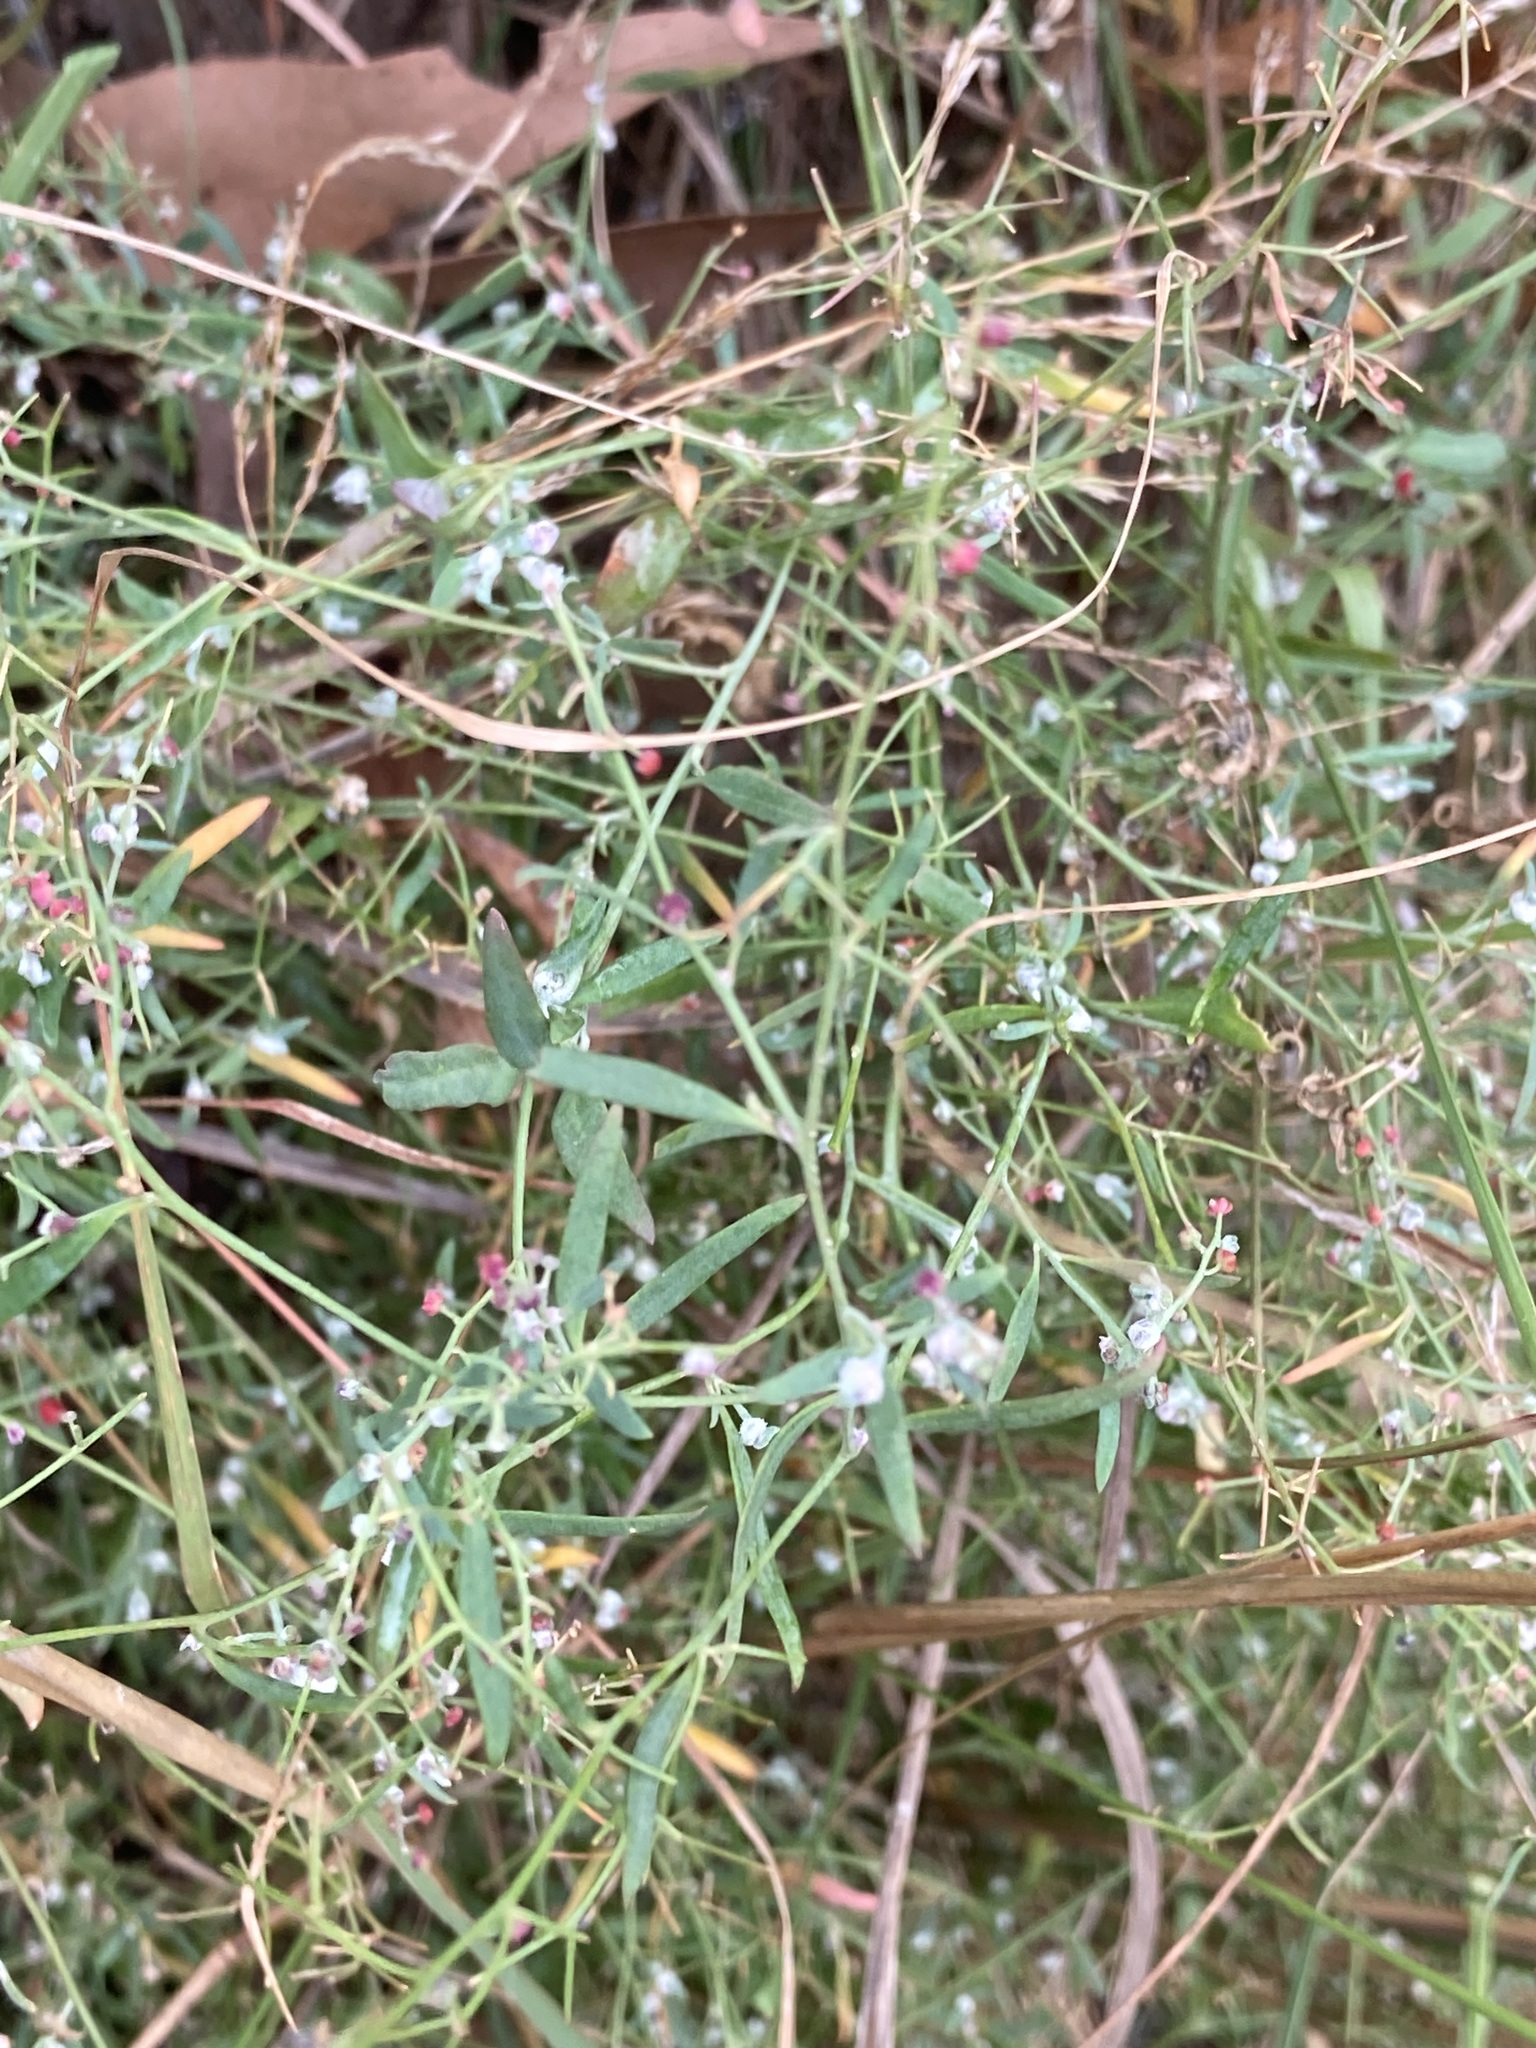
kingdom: Plantae
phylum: Tracheophyta
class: Magnoliopsida
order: Caryophyllales
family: Amaranthaceae
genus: Chenopodium
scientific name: Chenopodium nutans
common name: Climbing-saltbush
